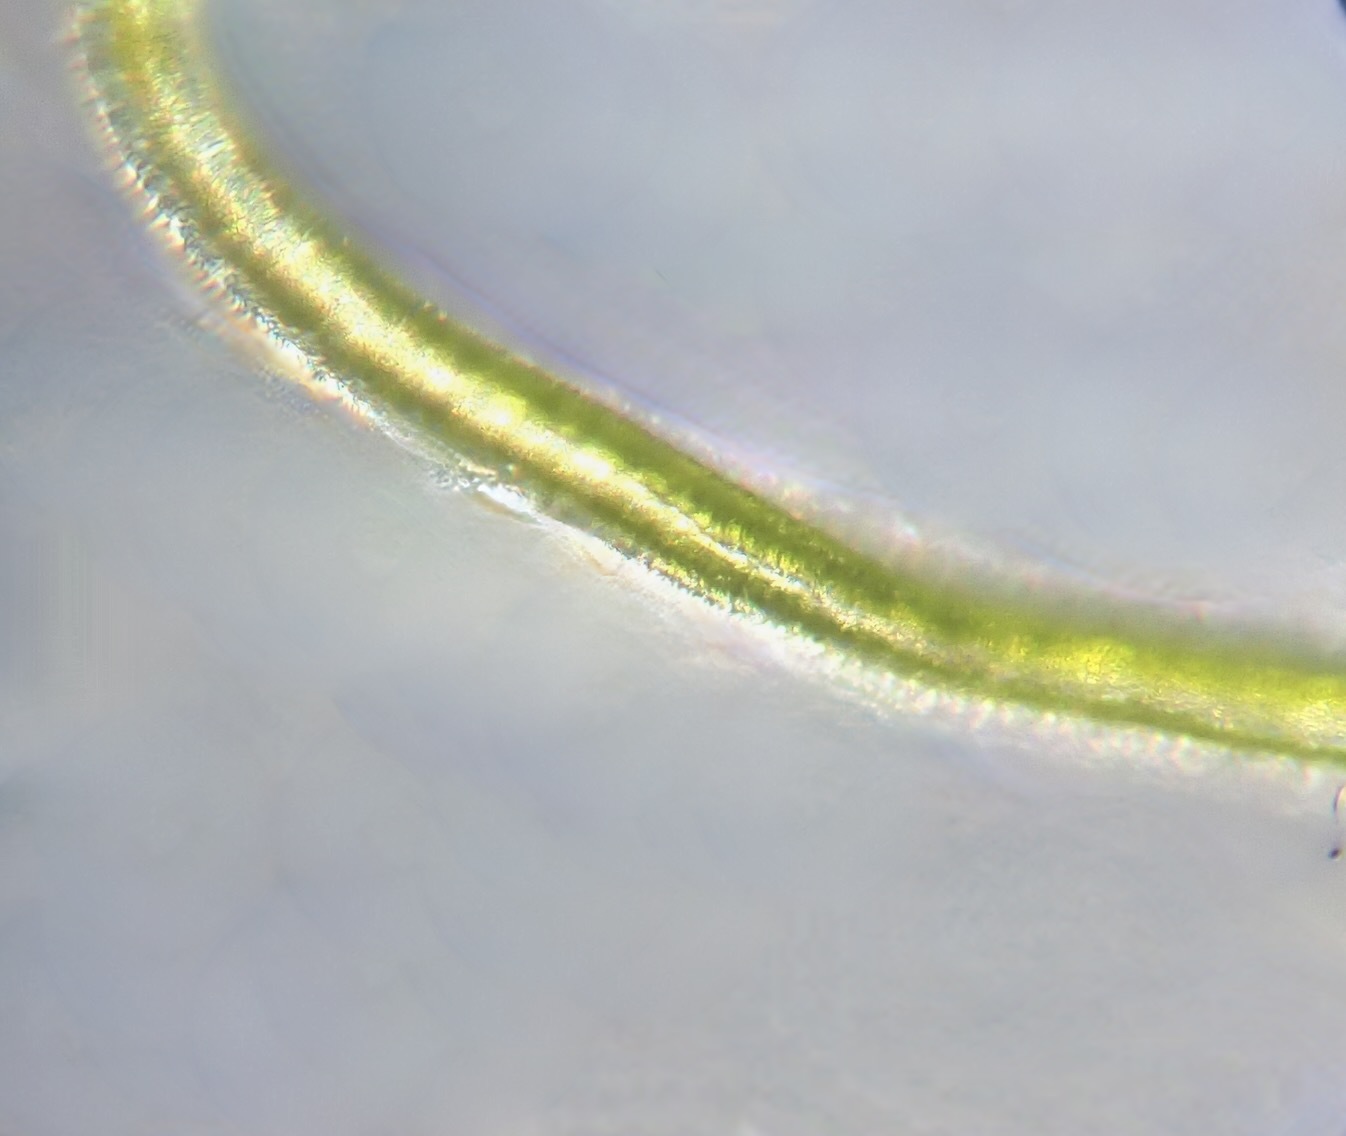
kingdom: Plantae
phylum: Chlorophyta
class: Ulvophyceae
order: Ulvales
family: Ulvaceae
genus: Ulva
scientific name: Ulva rigida
